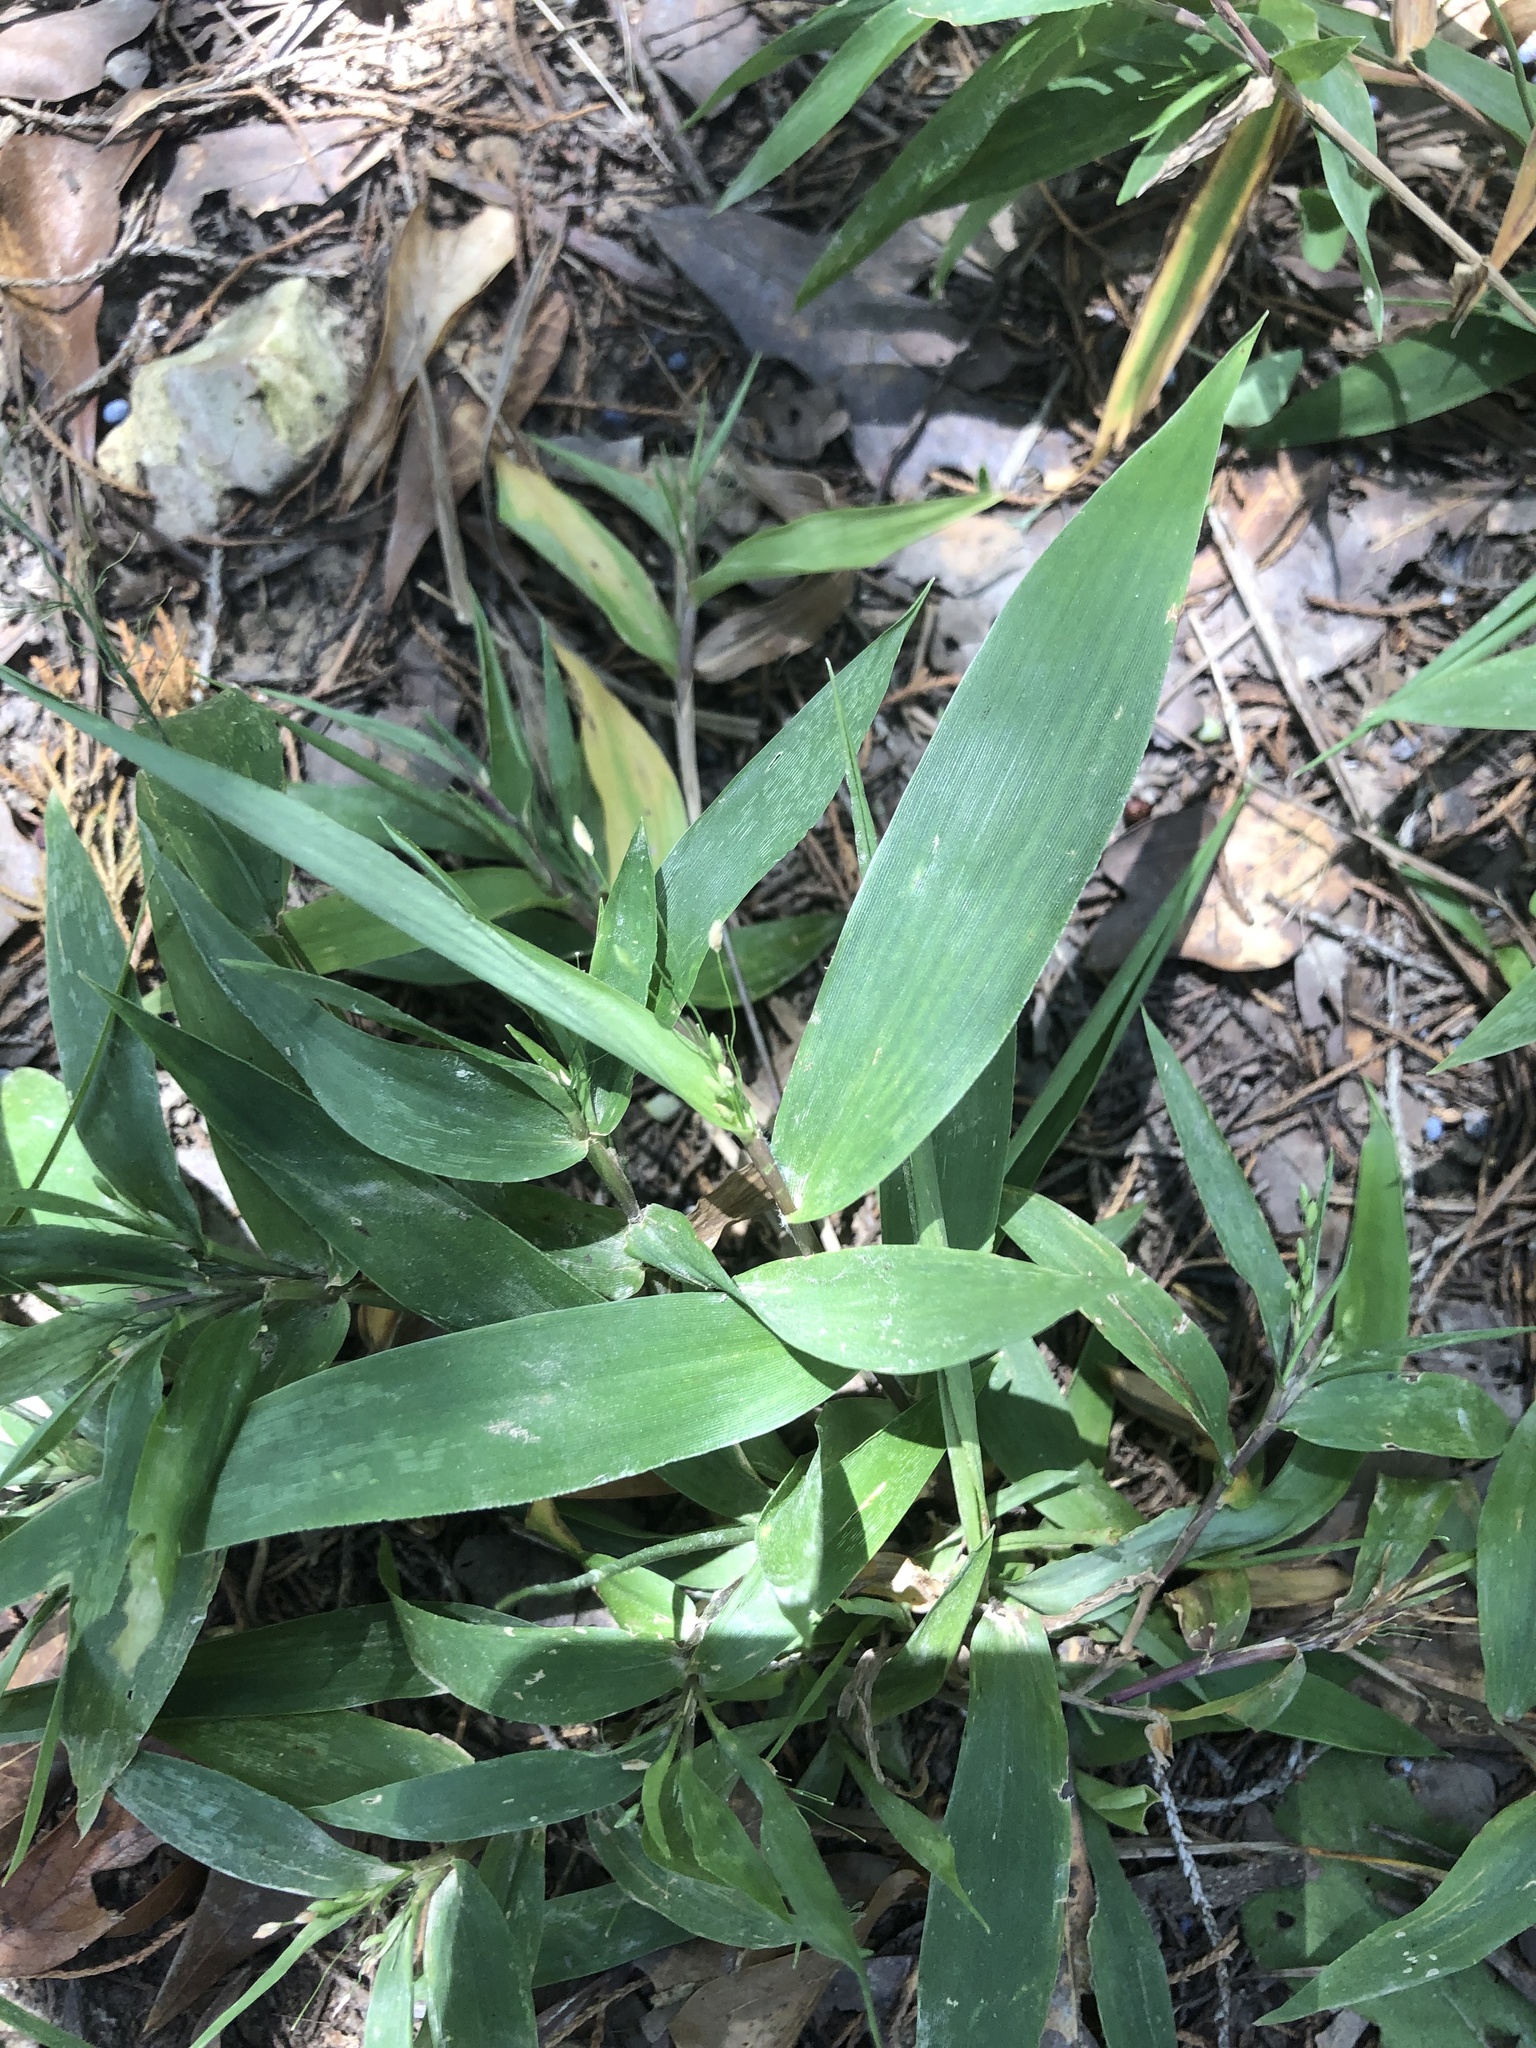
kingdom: Plantae
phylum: Tracheophyta
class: Liliopsida
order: Poales
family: Poaceae
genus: Dichanthelium
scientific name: Dichanthelium commutatum
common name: Variable witchgrass
